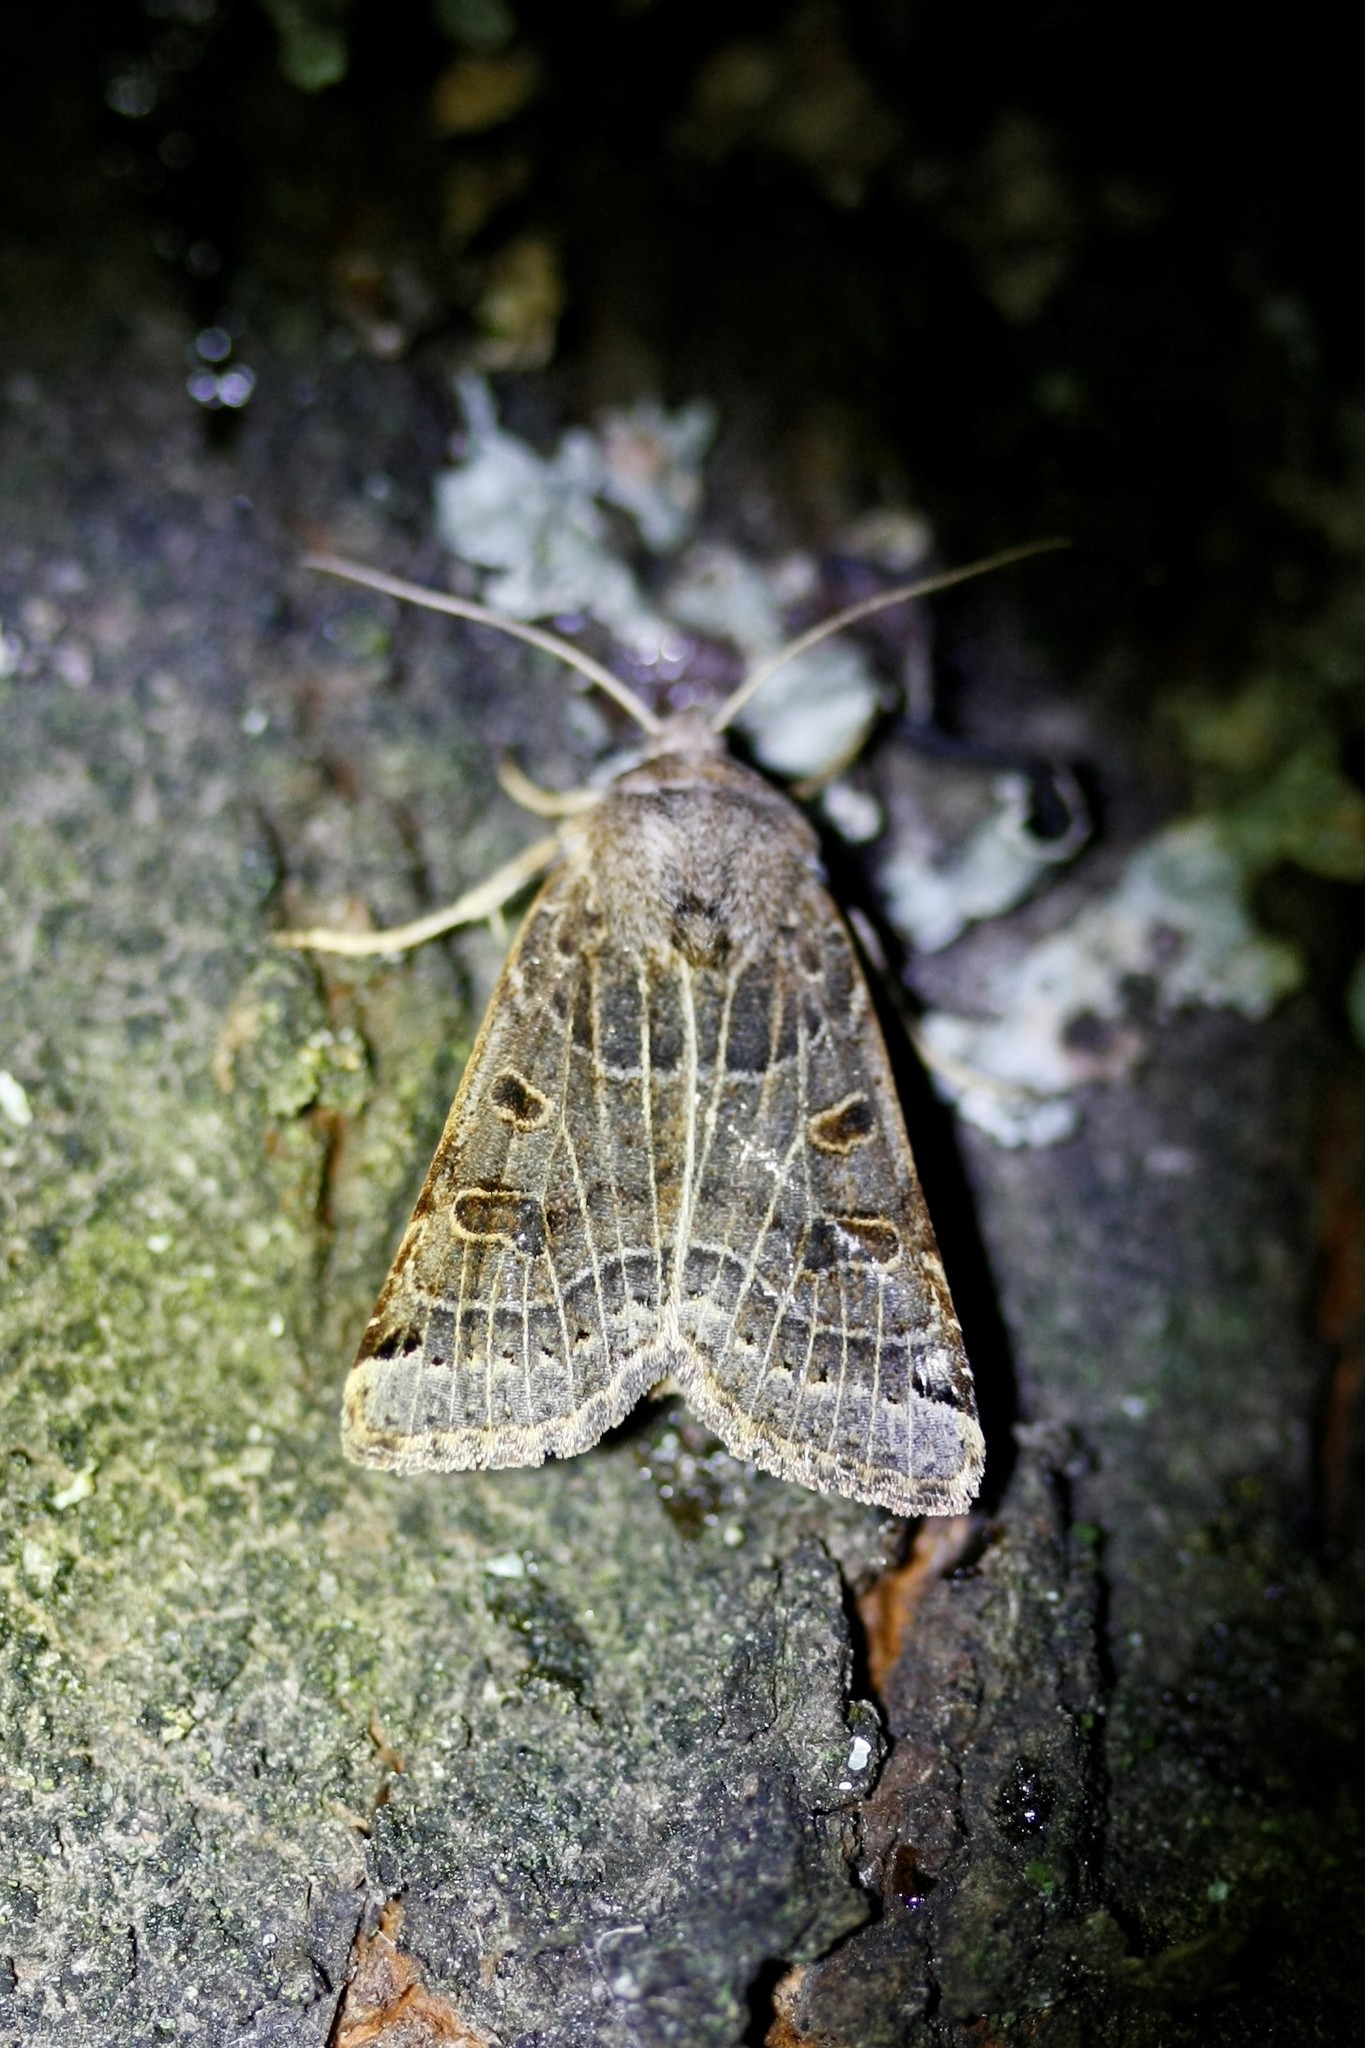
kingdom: Animalia
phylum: Arthropoda
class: Insecta
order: Lepidoptera
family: Noctuidae
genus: Agrochola
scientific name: Agrochola lunosa
